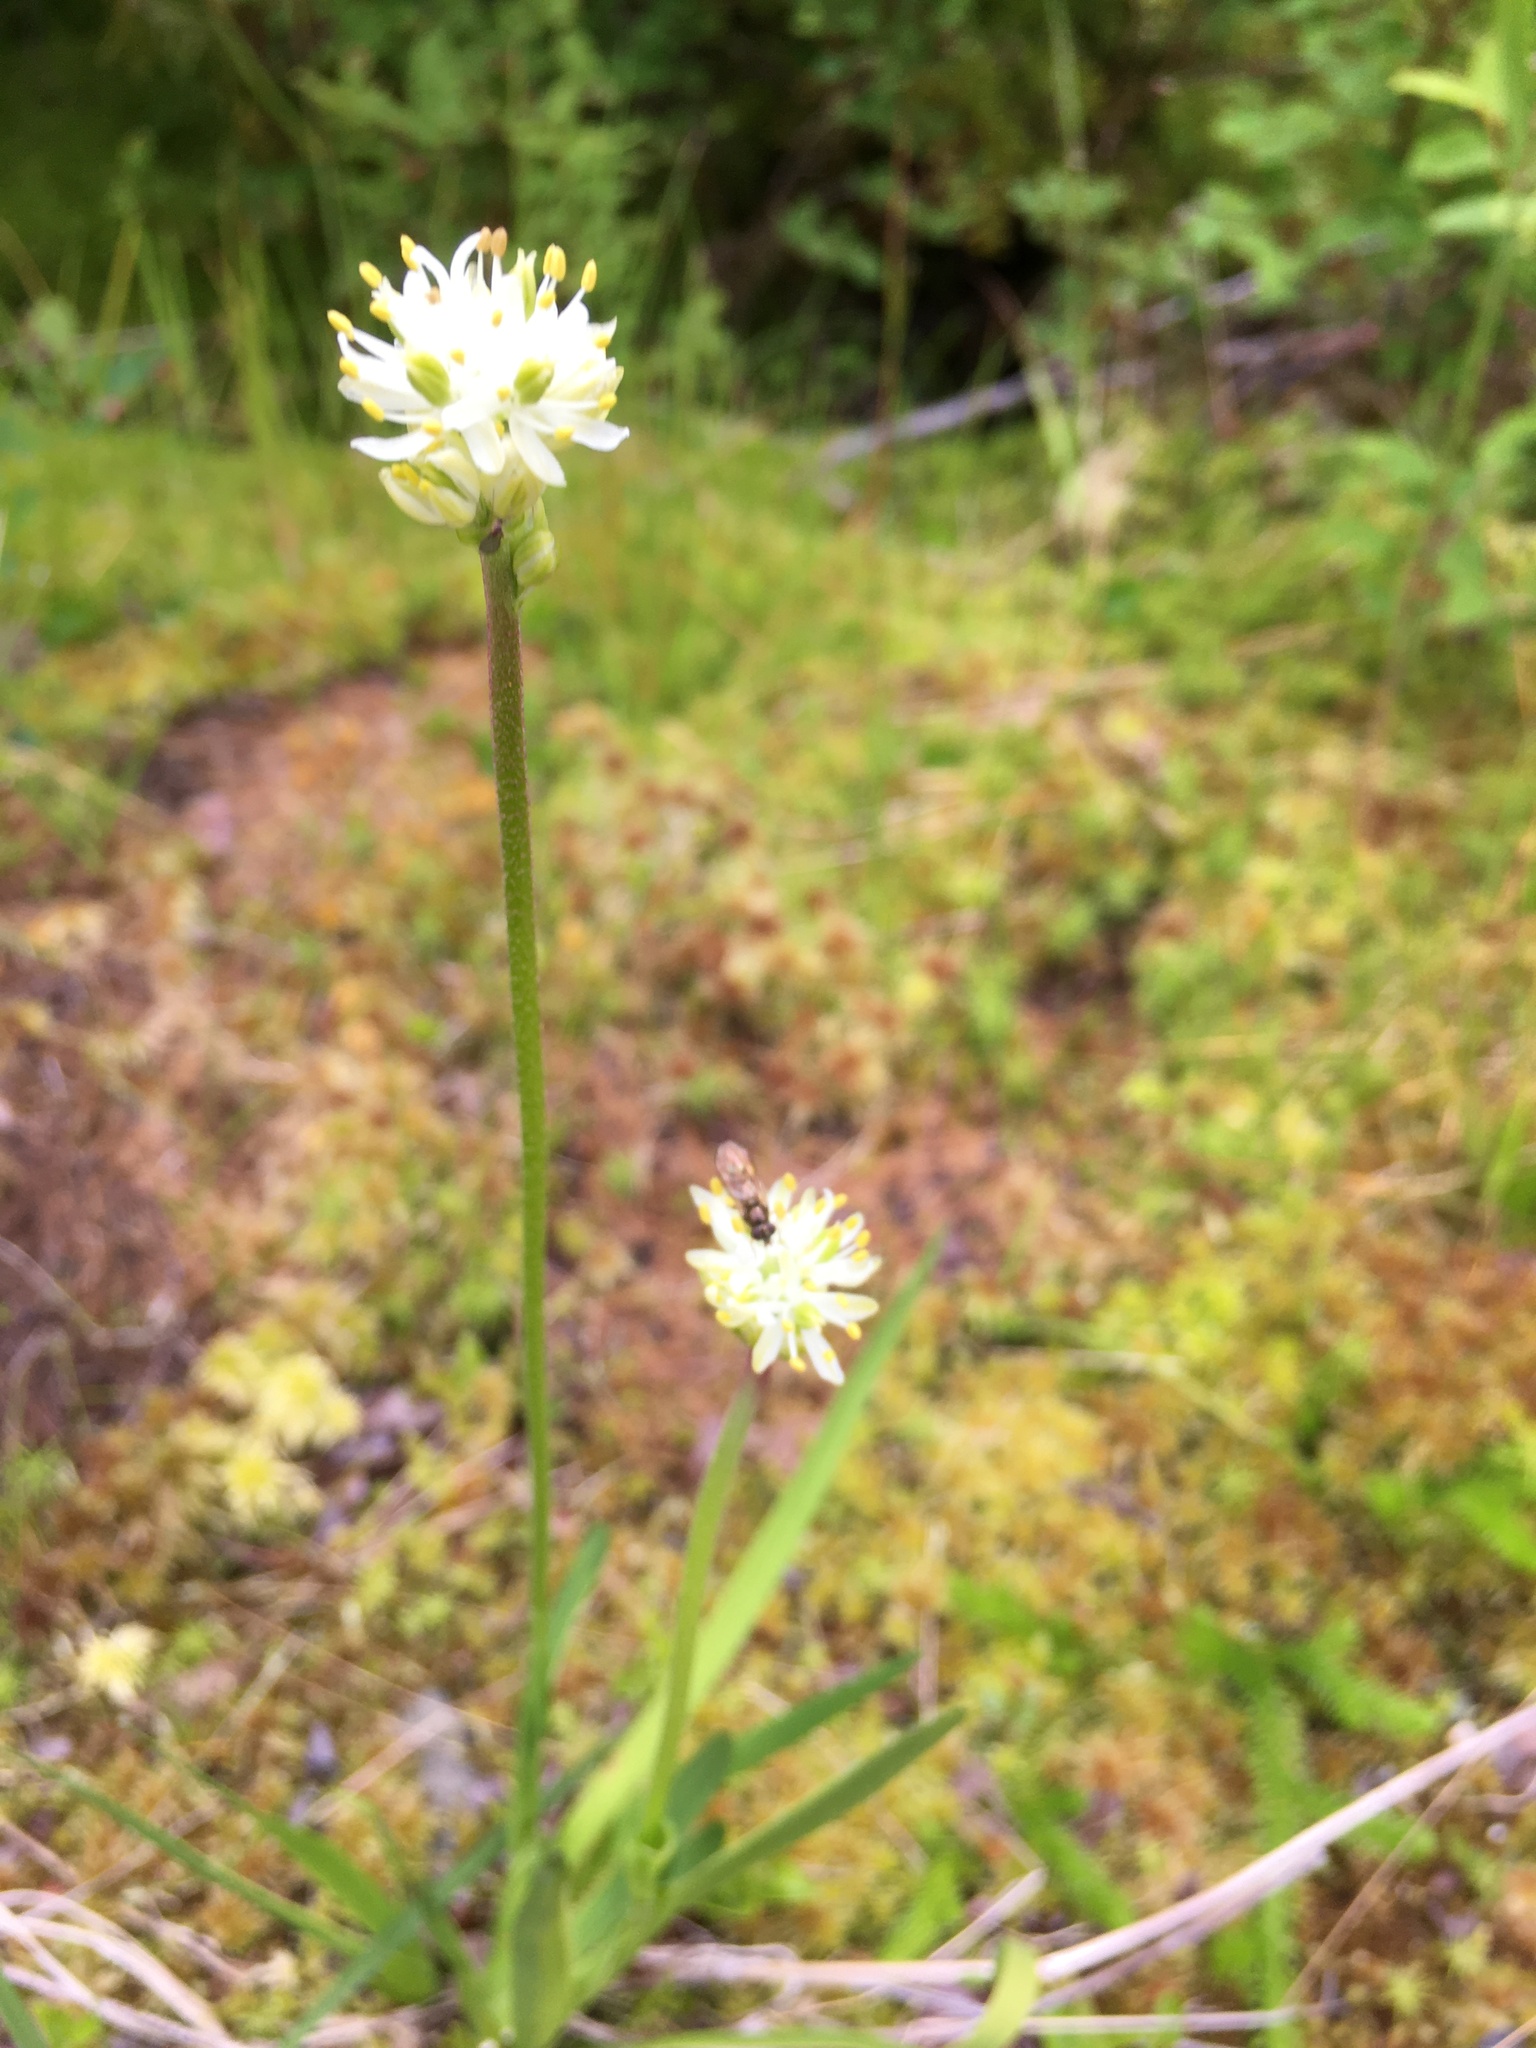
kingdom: Plantae
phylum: Tracheophyta
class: Liliopsida
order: Alismatales
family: Tofieldiaceae
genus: Triantha
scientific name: Triantha glutinosa
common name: Glutinous tofieldia
